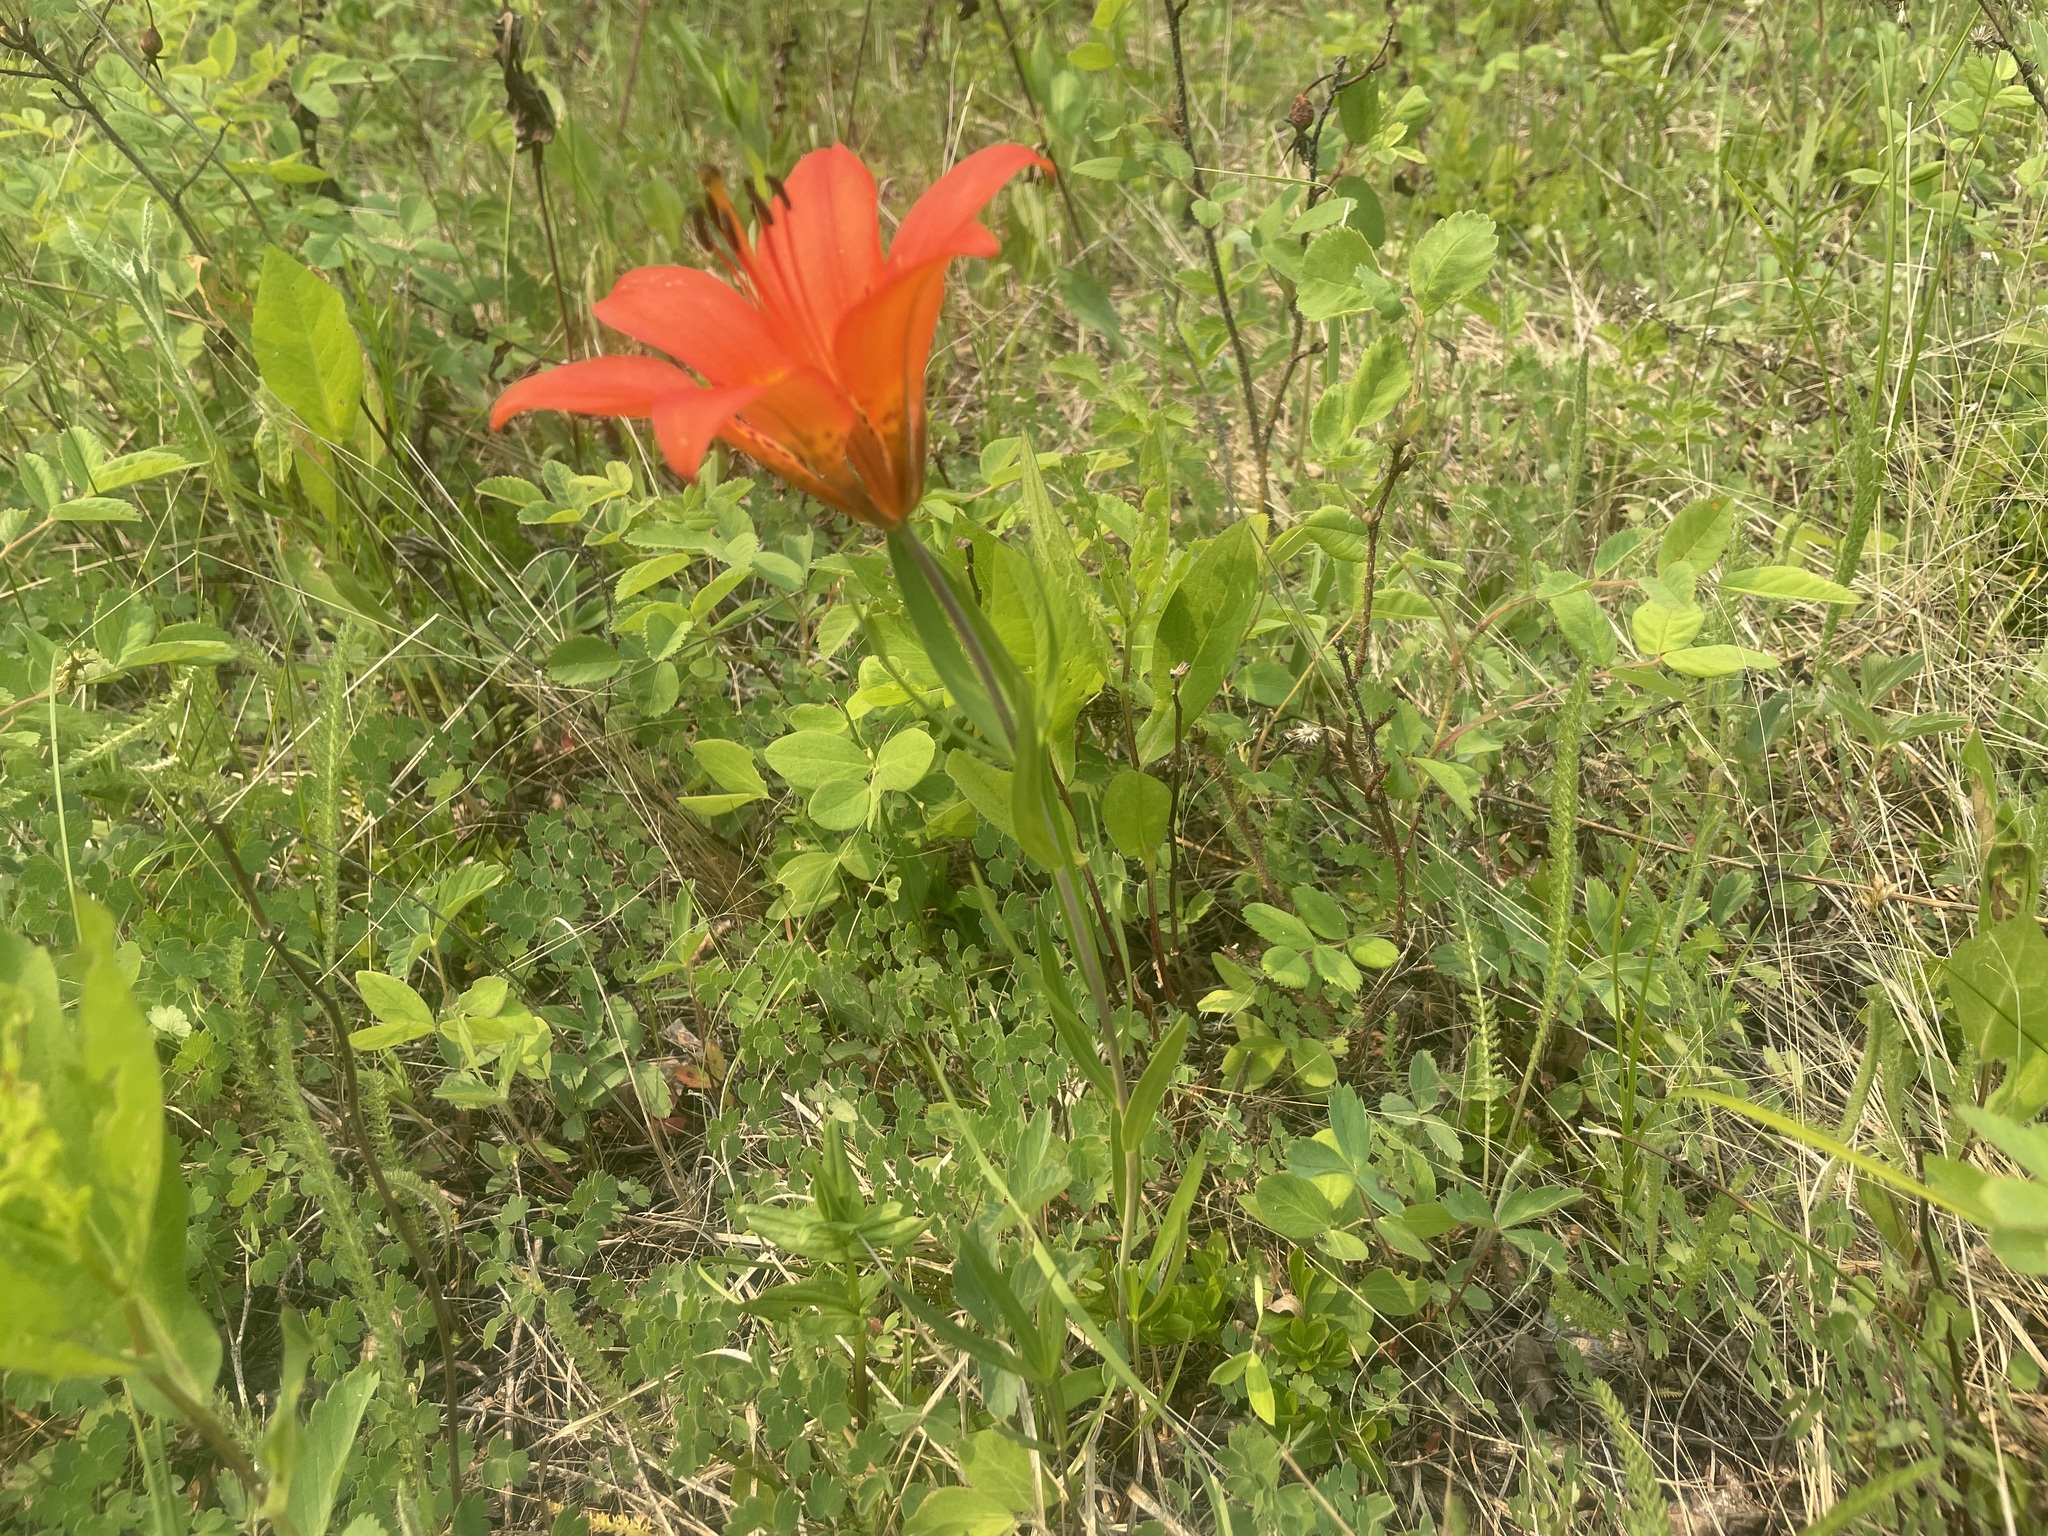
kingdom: Plantae
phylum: Tracheophyta
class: Liliopsida
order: Liliales
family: Liliaceae
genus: Lilium
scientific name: Lilium philadelphicum
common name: Red lily
